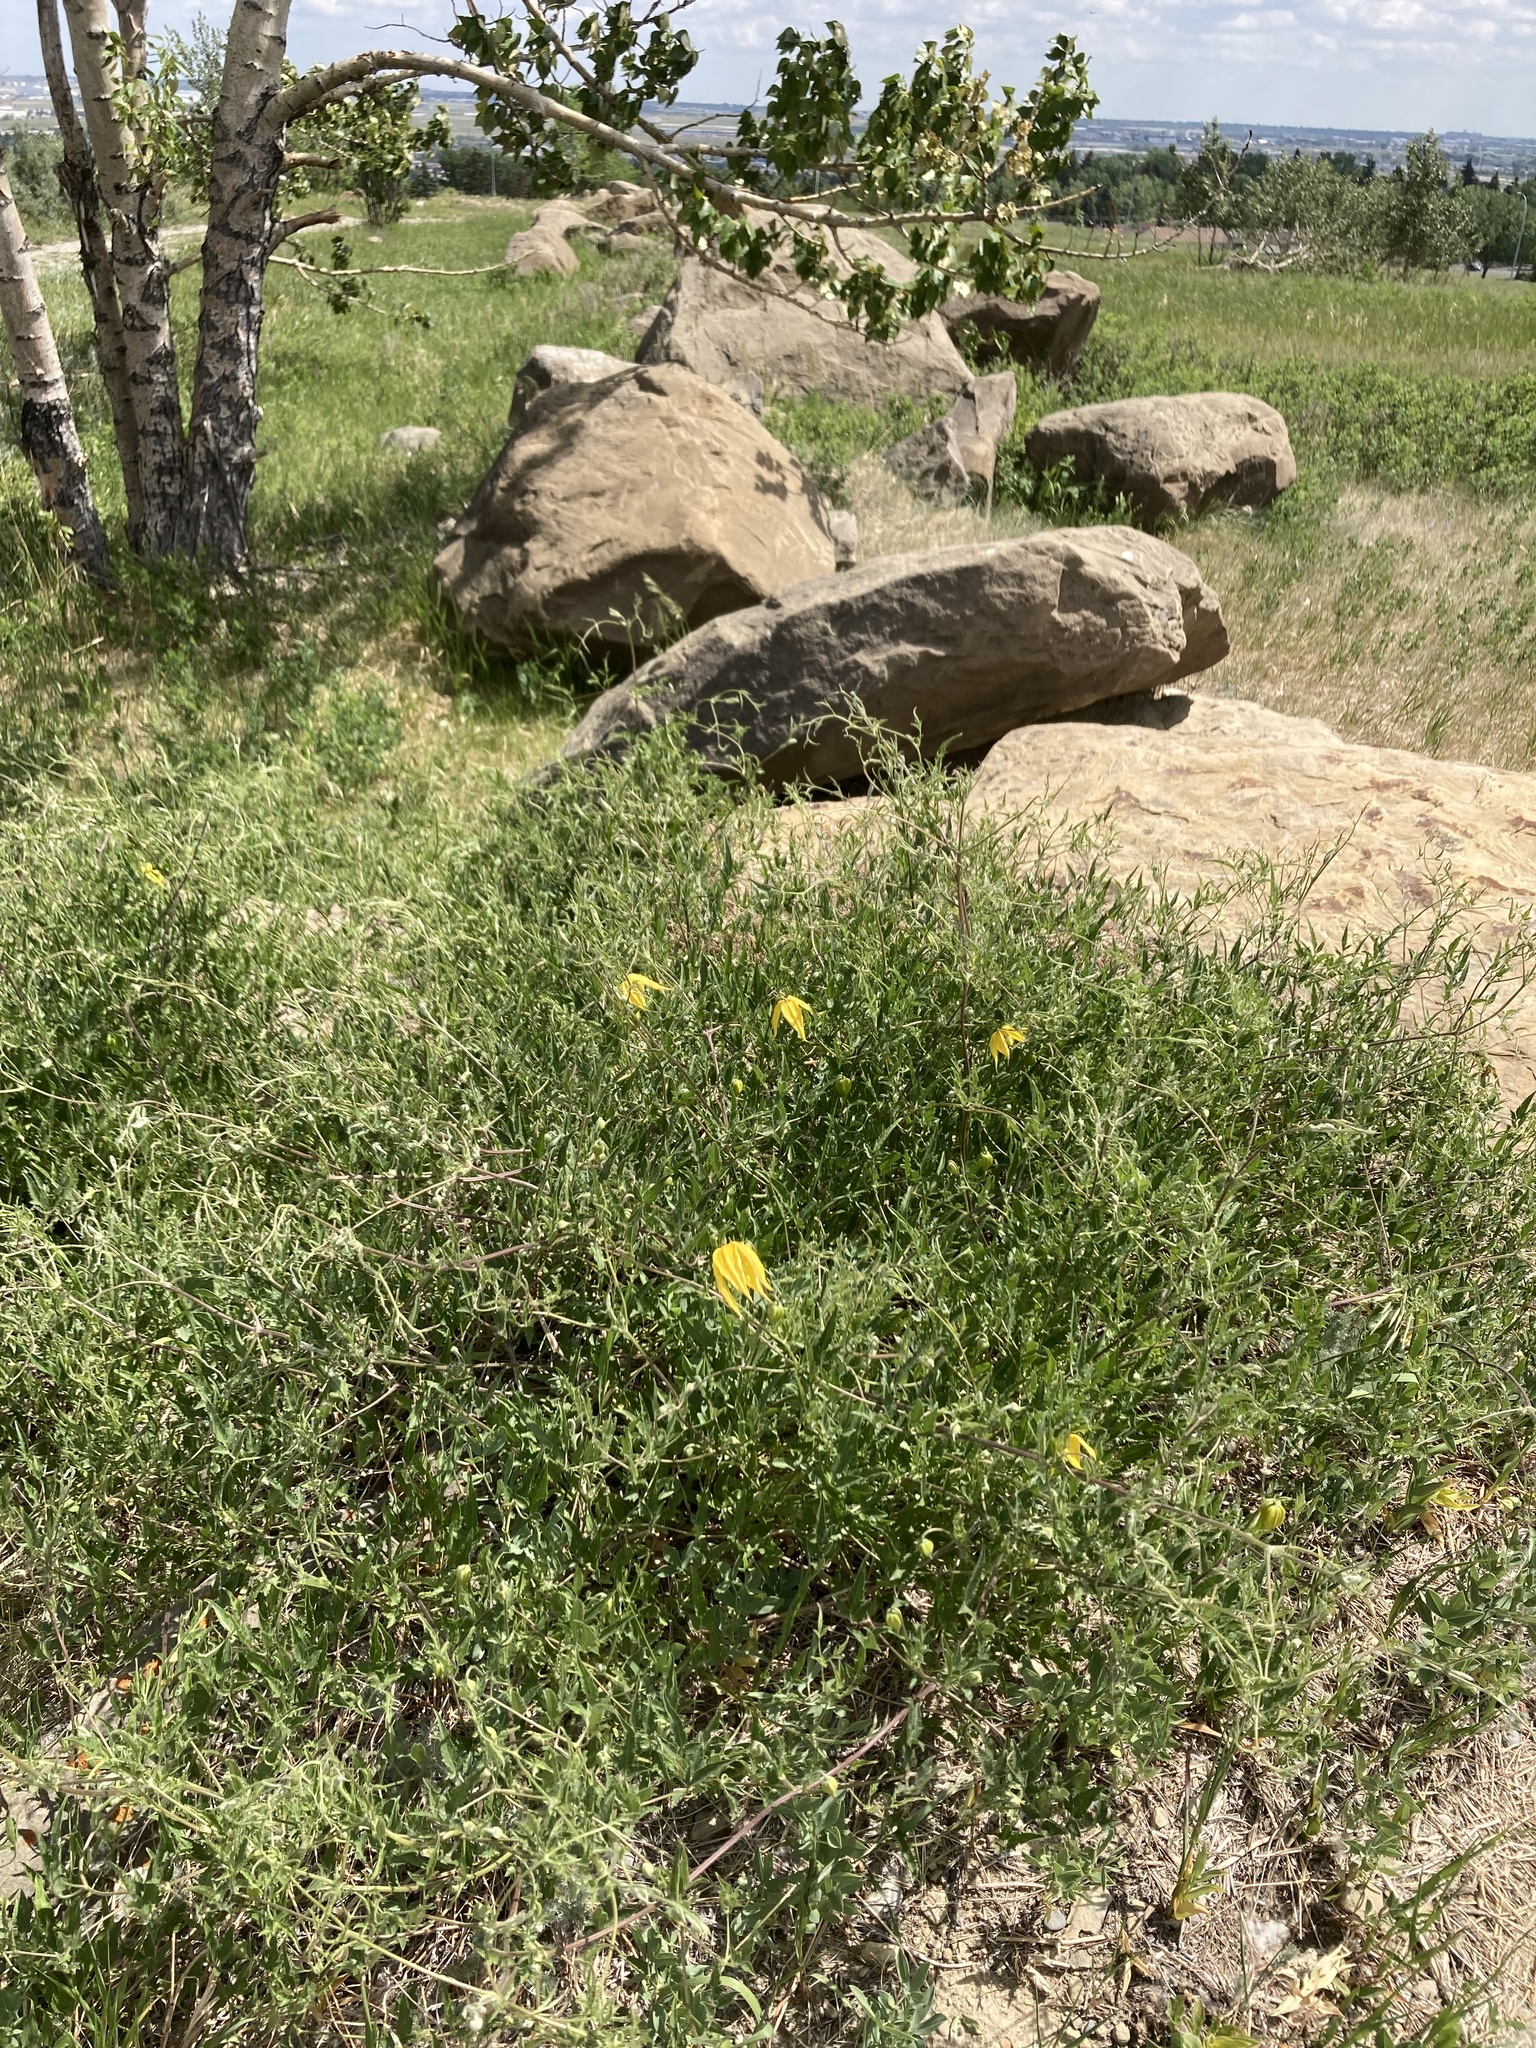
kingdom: Plantae
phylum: Tracheophyta
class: Magnoliopsida
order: Ranunculales
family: Ranunculaceae
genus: Clematis
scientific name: Clematis tangutica
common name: Orange-peel clematis
